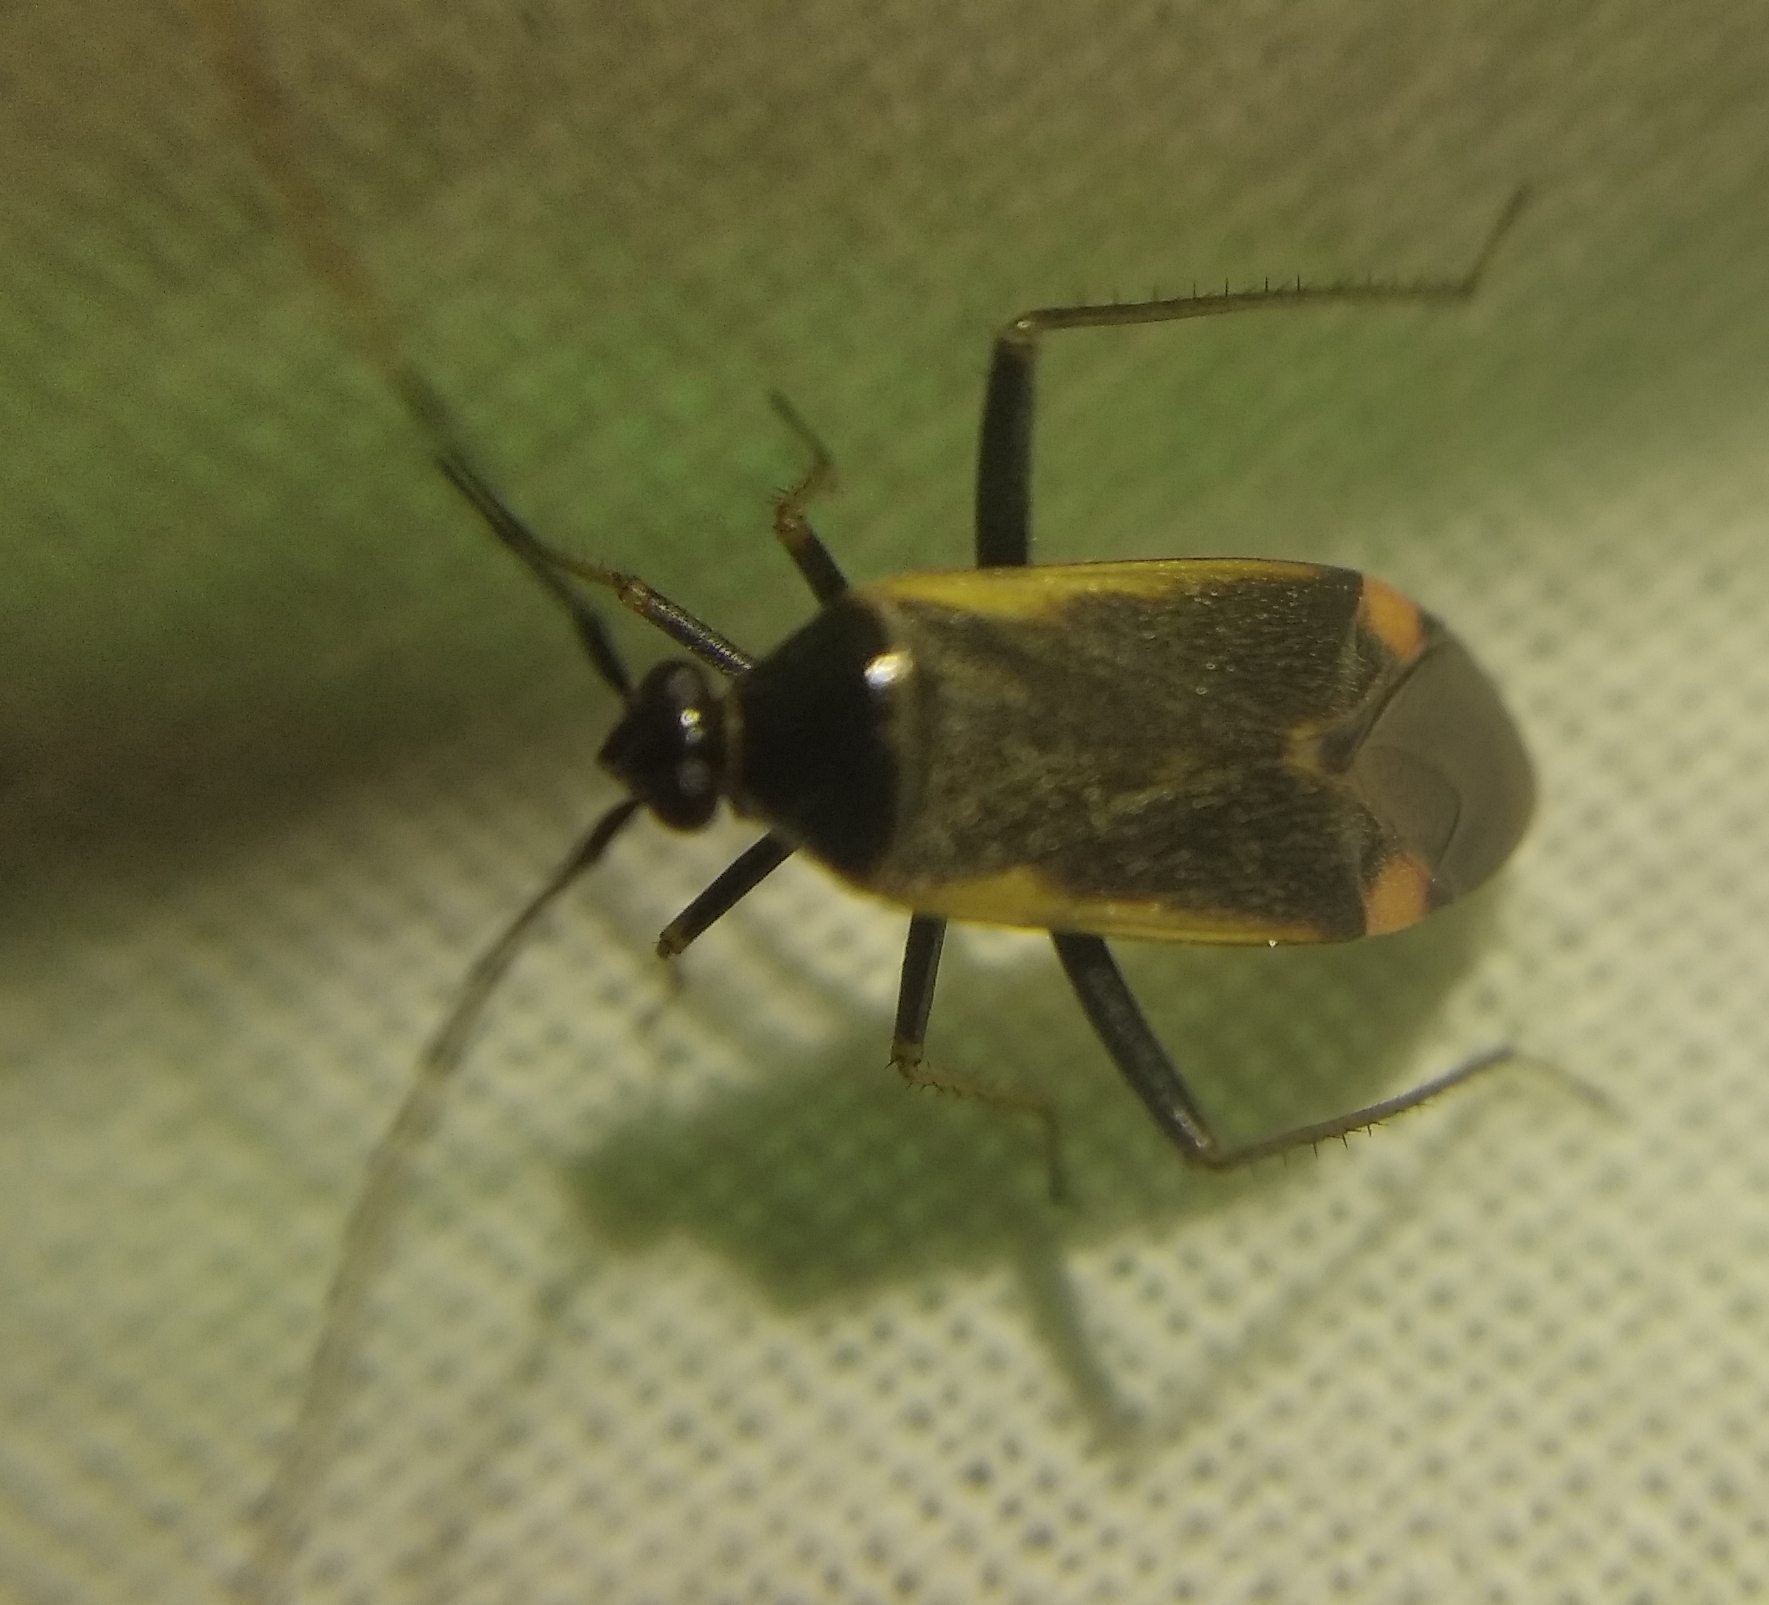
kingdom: Animalia
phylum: Arthropoda
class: Insecta
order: Hemiptera
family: Miridae
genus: Adelphocoris
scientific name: Adelphocoris seticornis
